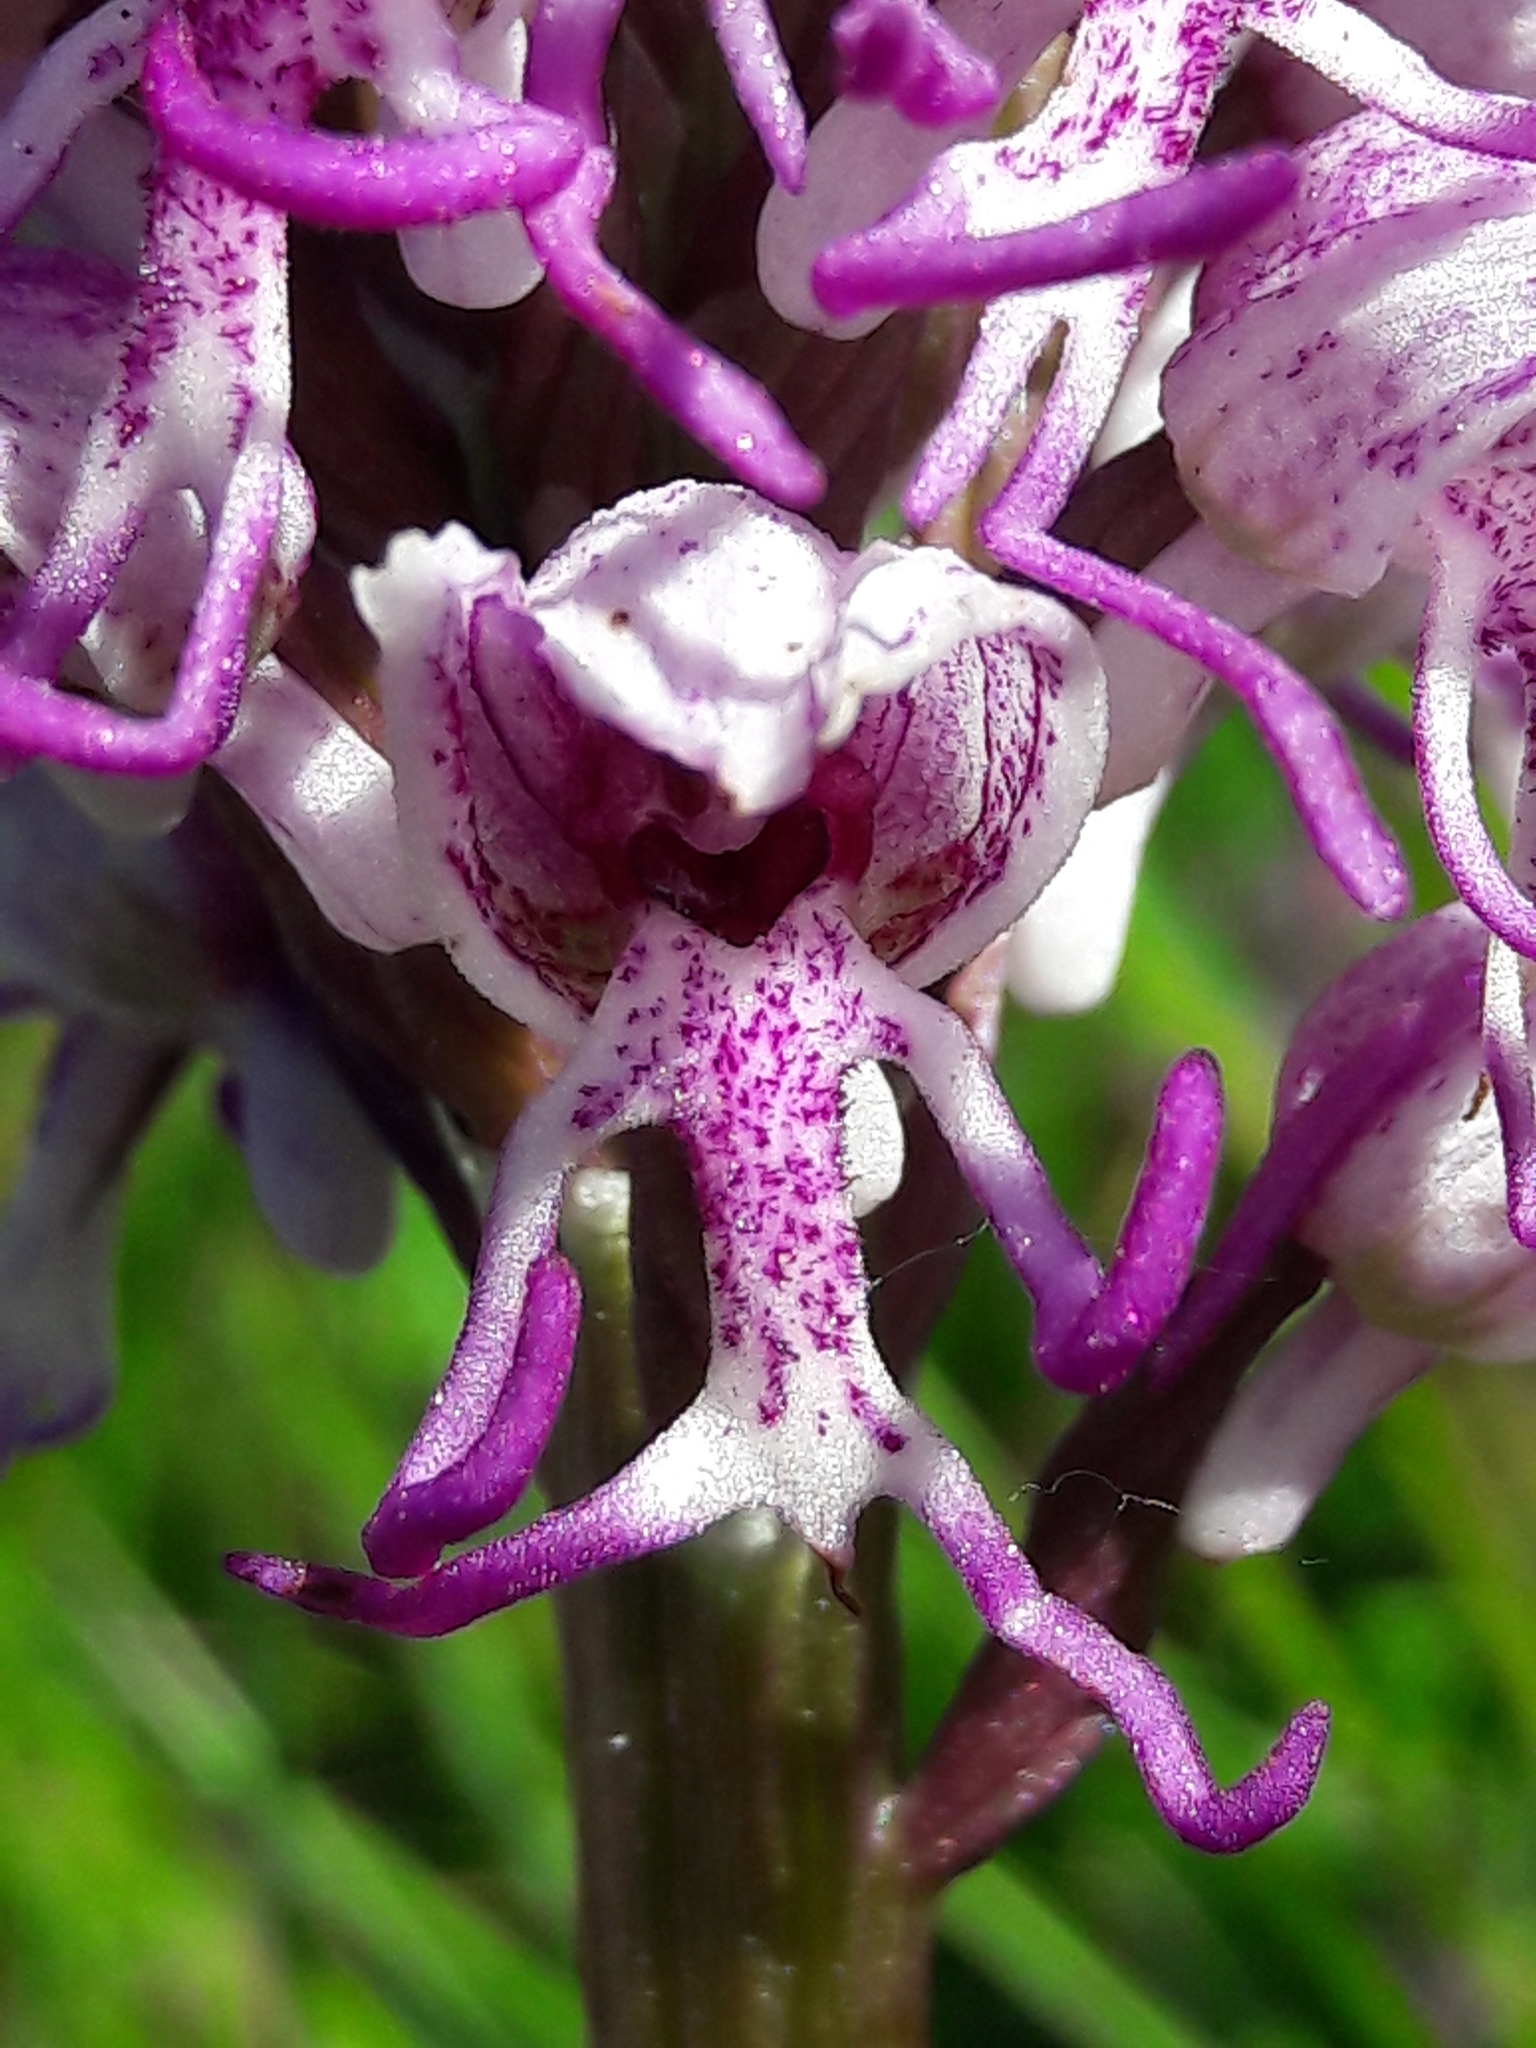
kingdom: Plantae
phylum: Tracheophyta
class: Liliopsida
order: Asparagales
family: Orchidaceae
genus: Orchis
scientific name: Orchis simia
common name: Monkey orchid
